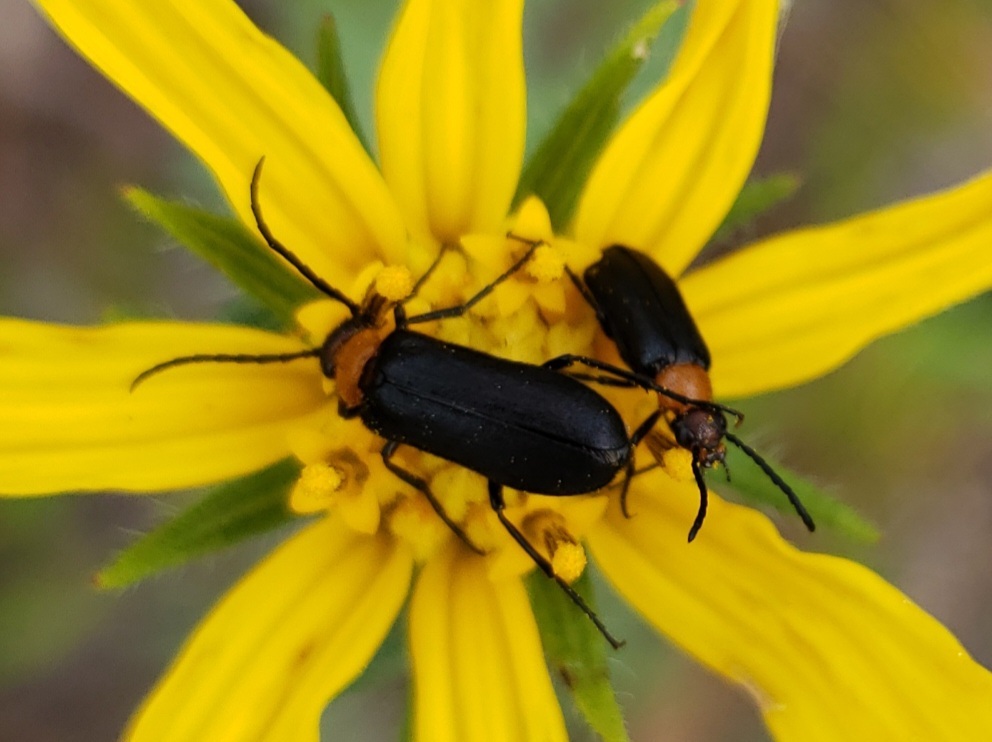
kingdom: Animalia
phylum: Arthropoda
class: Insecta
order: Coleoptera
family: Meloidae
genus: Nemognatha
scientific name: Nemognatha nemorensis
